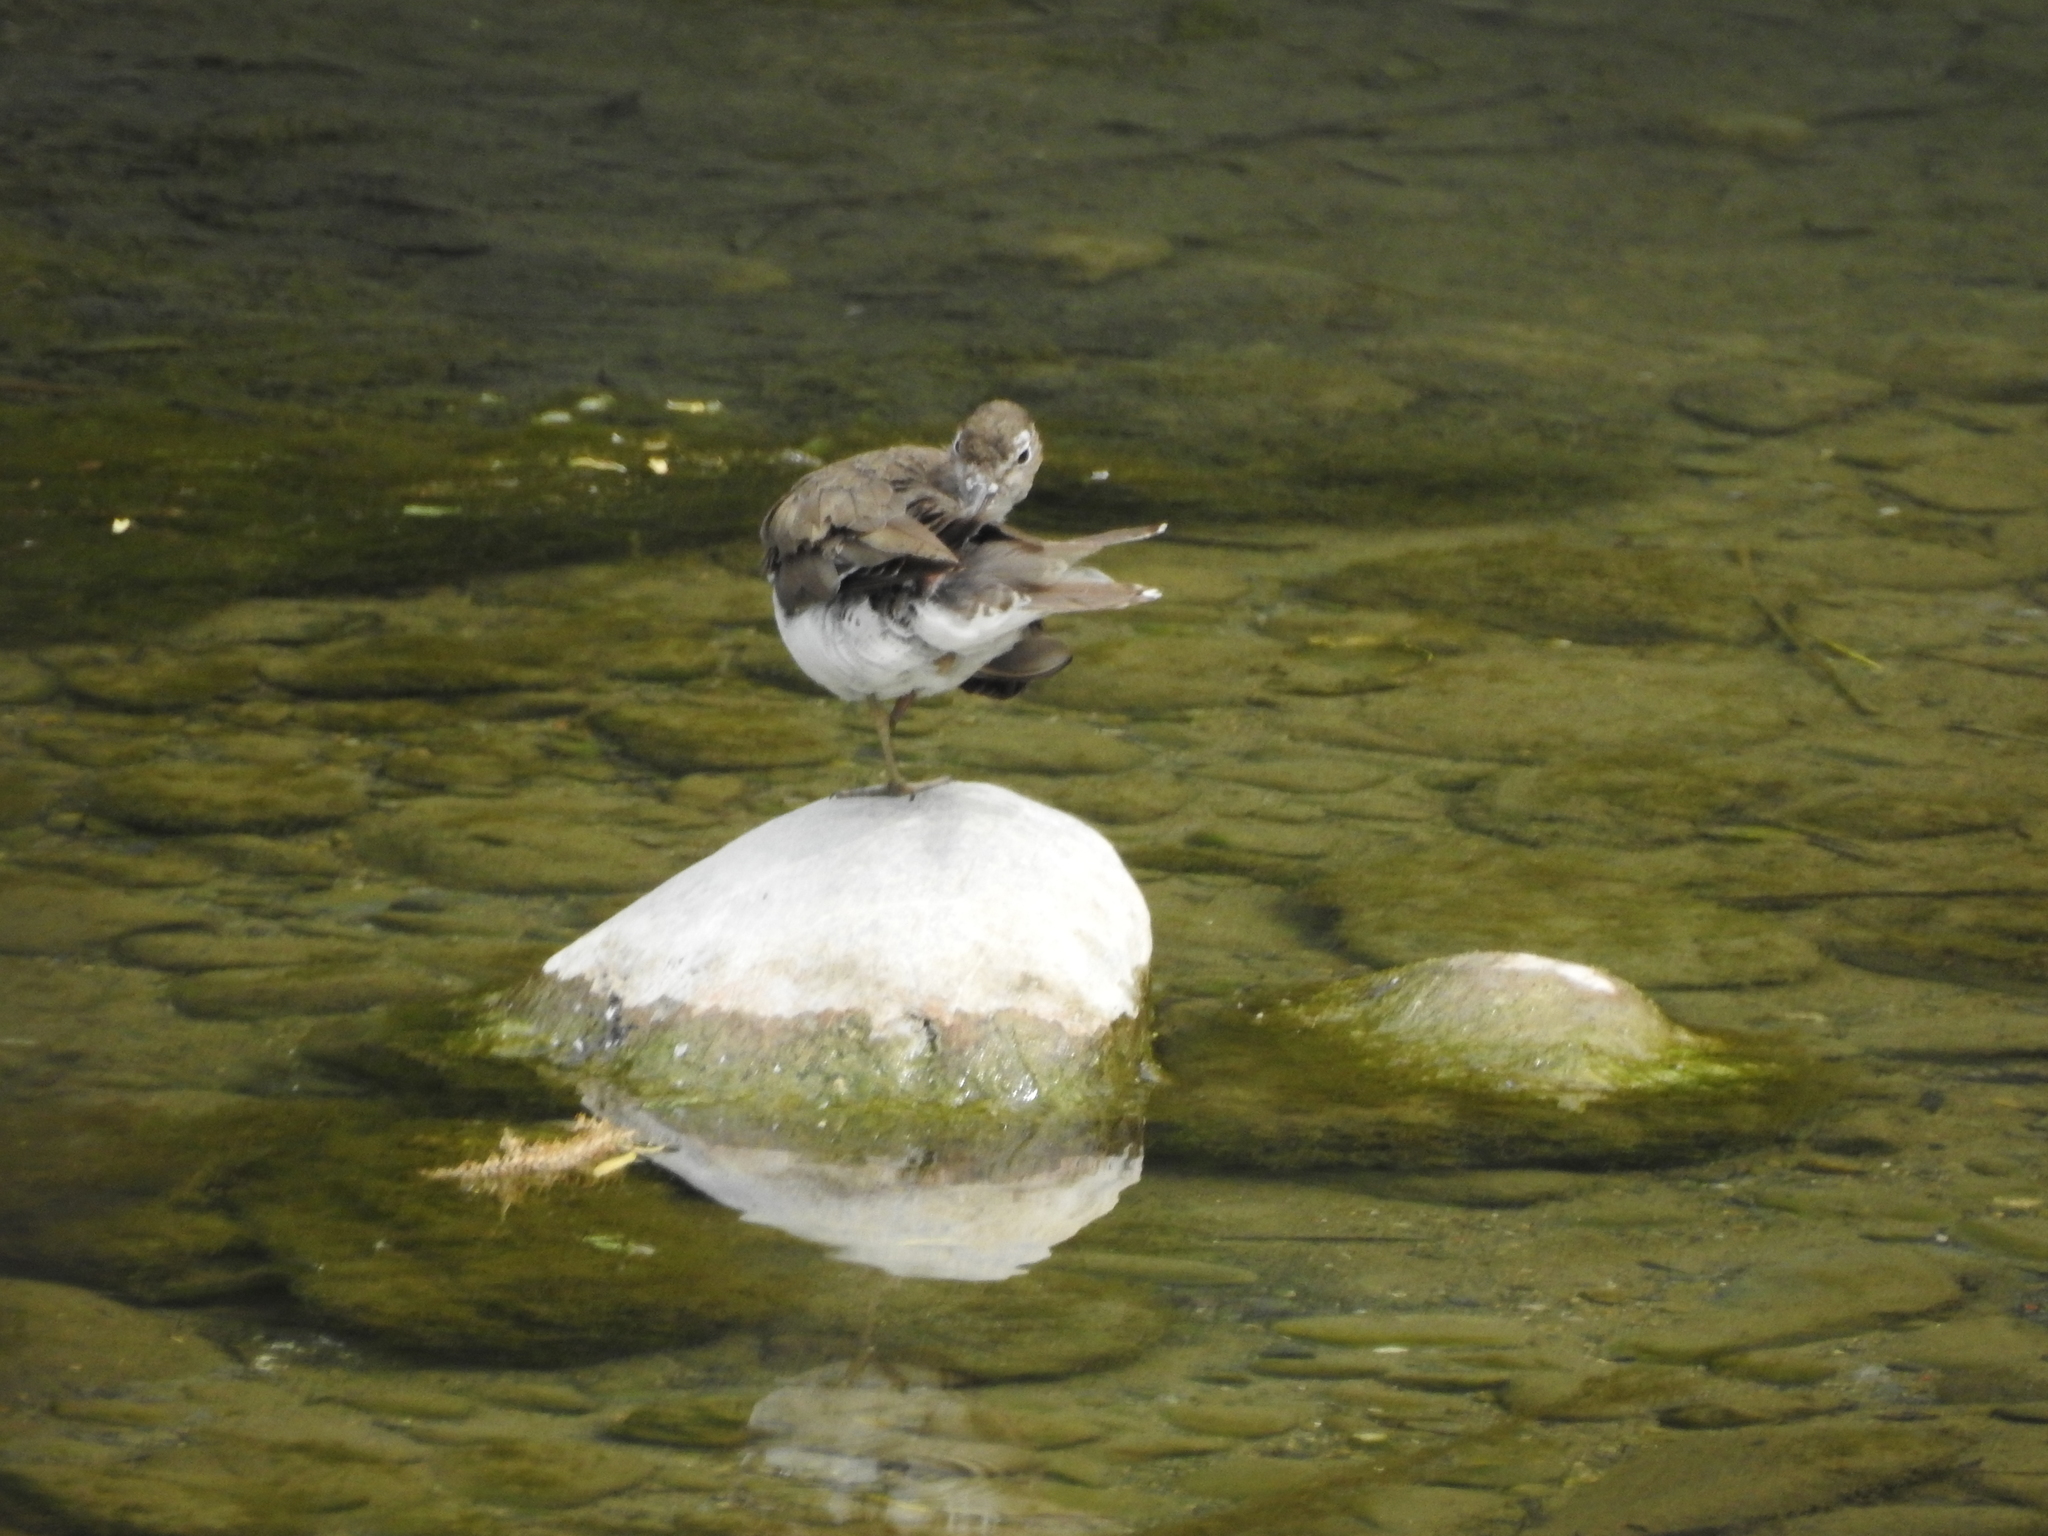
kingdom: Animalia
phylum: Chordata
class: Aves
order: Charadriiformes
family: Scolopacidae
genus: Actitis
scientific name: Actitis macularius
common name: Spotted sandpiper
